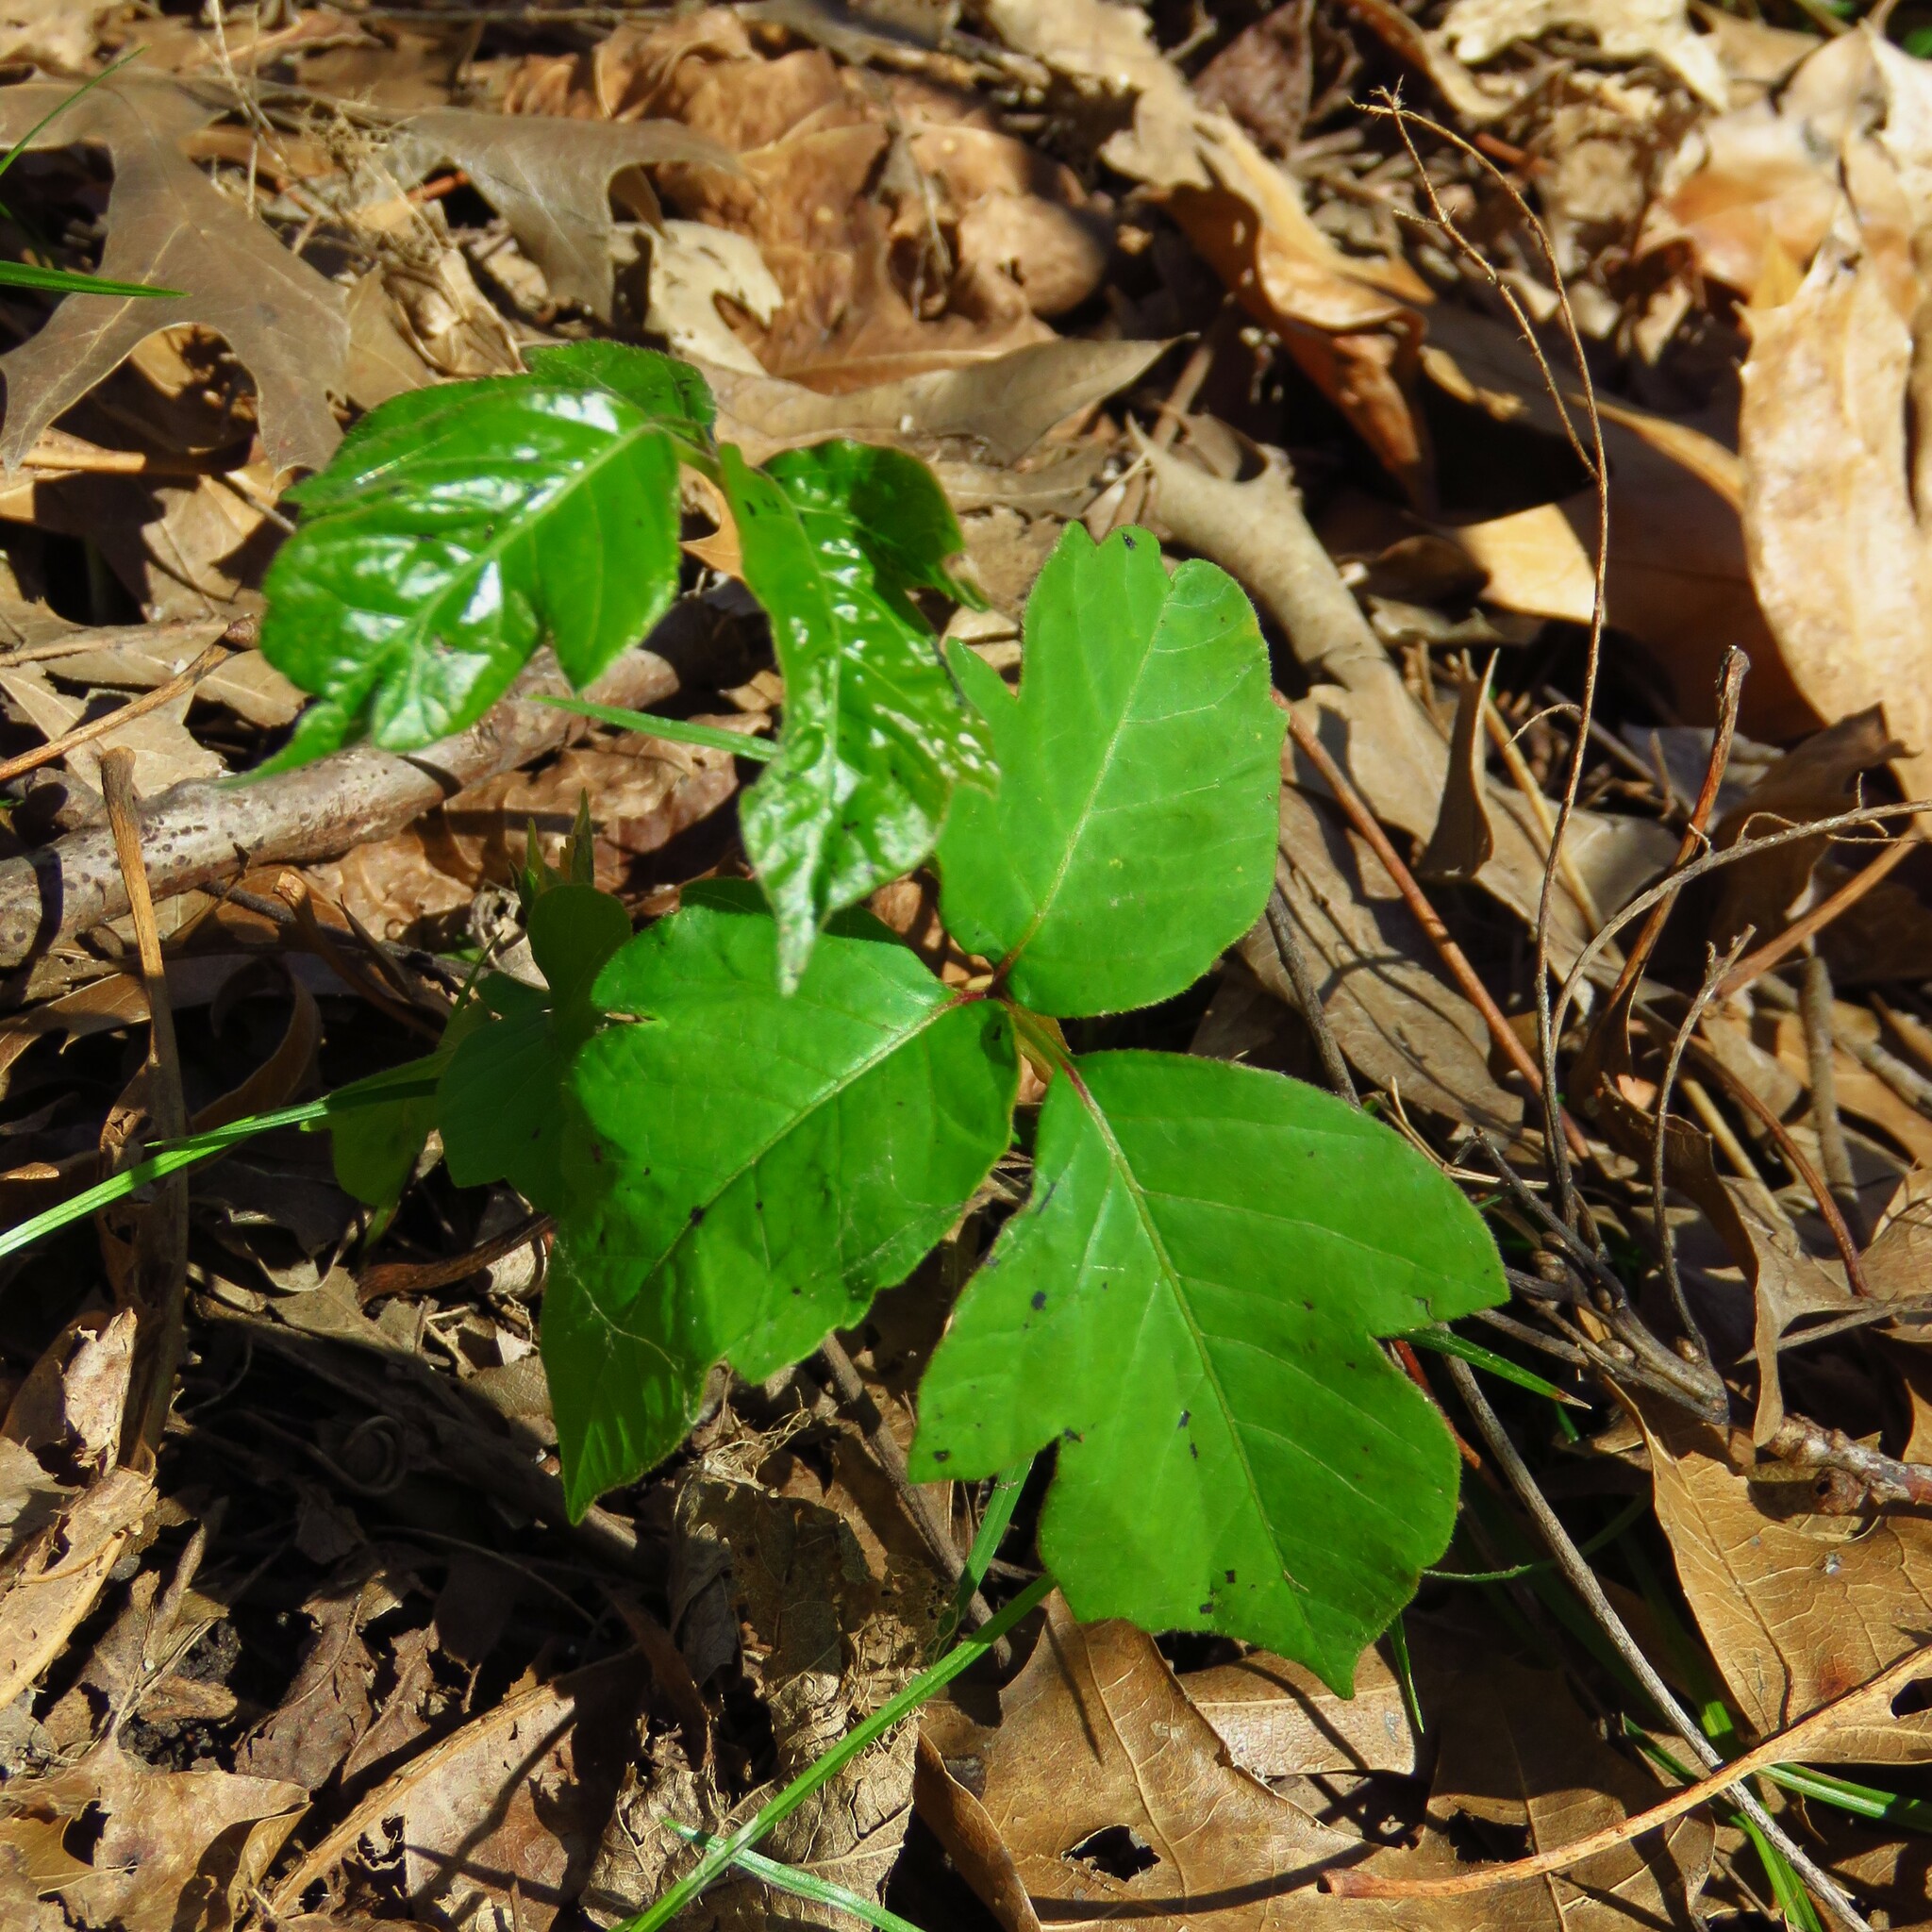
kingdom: Plantae
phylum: Tracheophyta
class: Magnoliopsida
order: Sapindales
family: Anacardiaceae
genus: Toxicodendron
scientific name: Toxicodendron radicans
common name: Poison ivy
